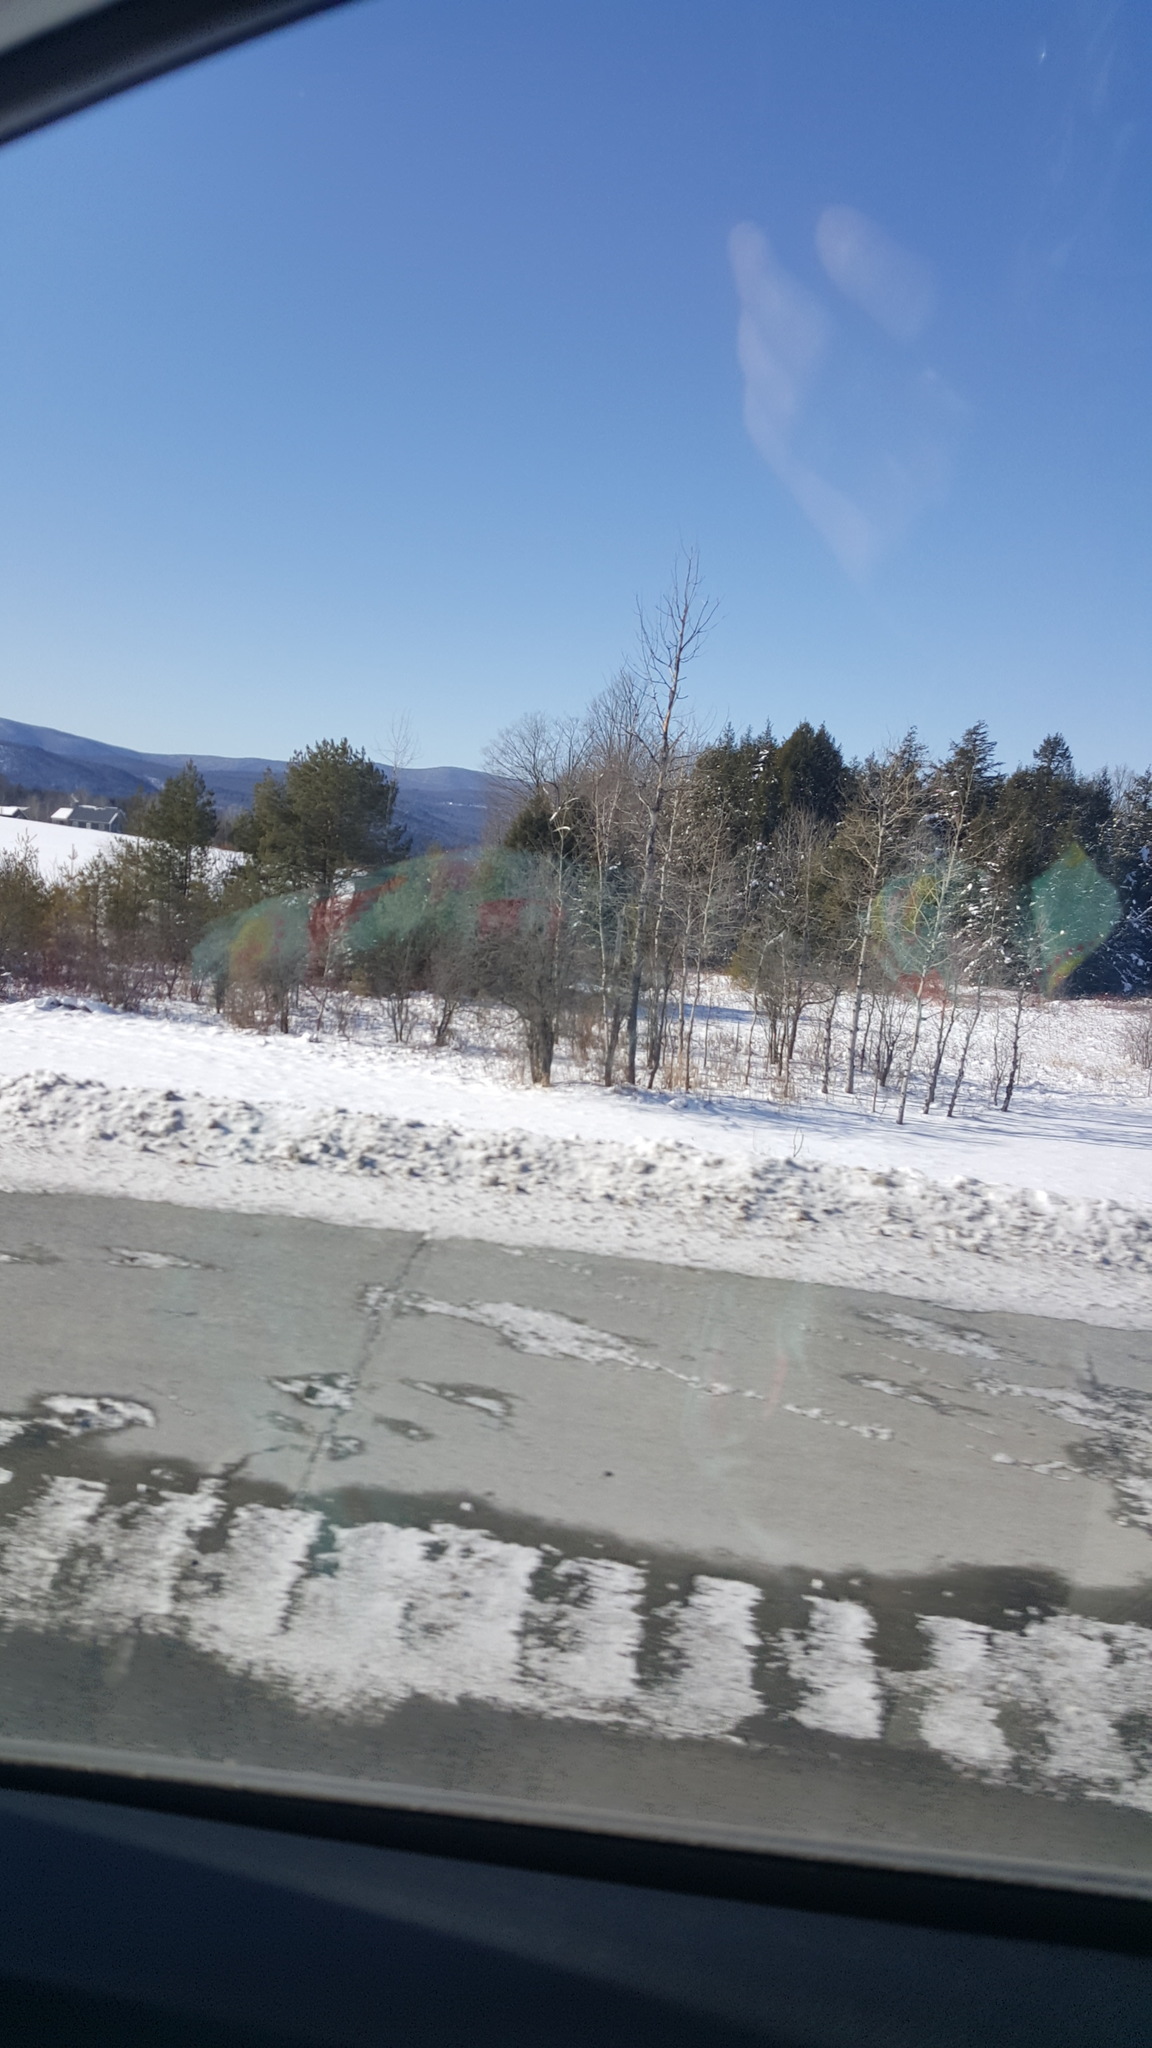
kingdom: Plantae
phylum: Tracheophyta
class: Pinopsida
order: Pinales
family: Pinaceae
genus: Pinus
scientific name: Pinus strobus
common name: Weymouth pine
